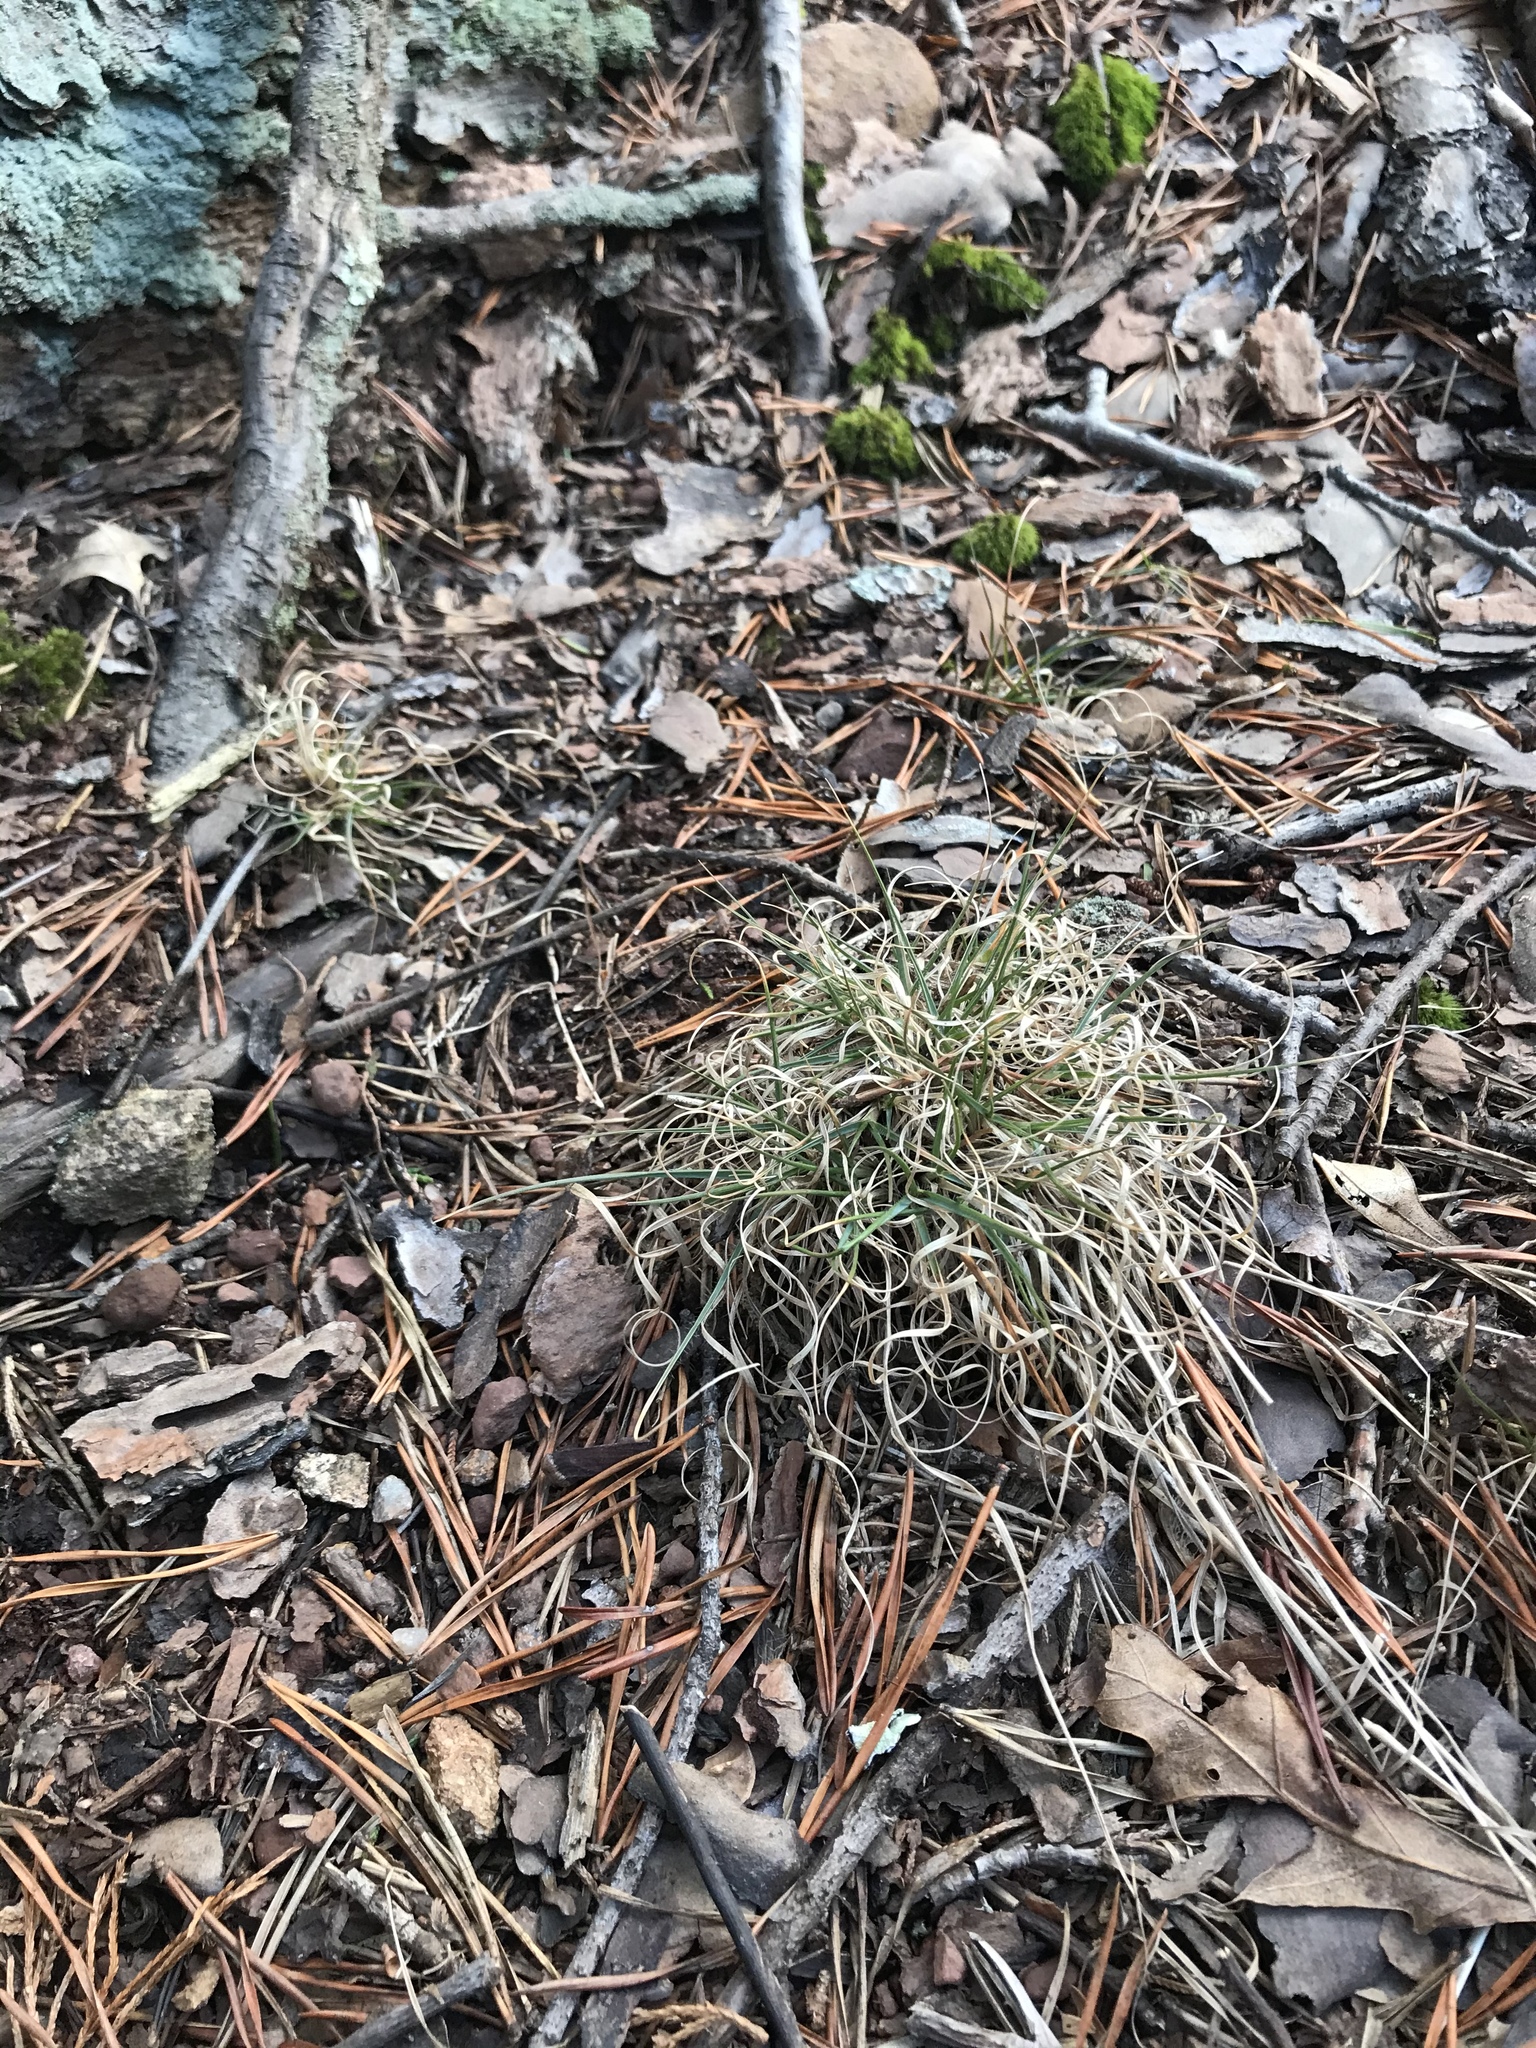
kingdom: Plantae
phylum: Tracheophyta
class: Liliopsida
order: Poales
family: Poaceae
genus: Danthonia
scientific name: Danthonia spicata
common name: Common wild oatgrass
